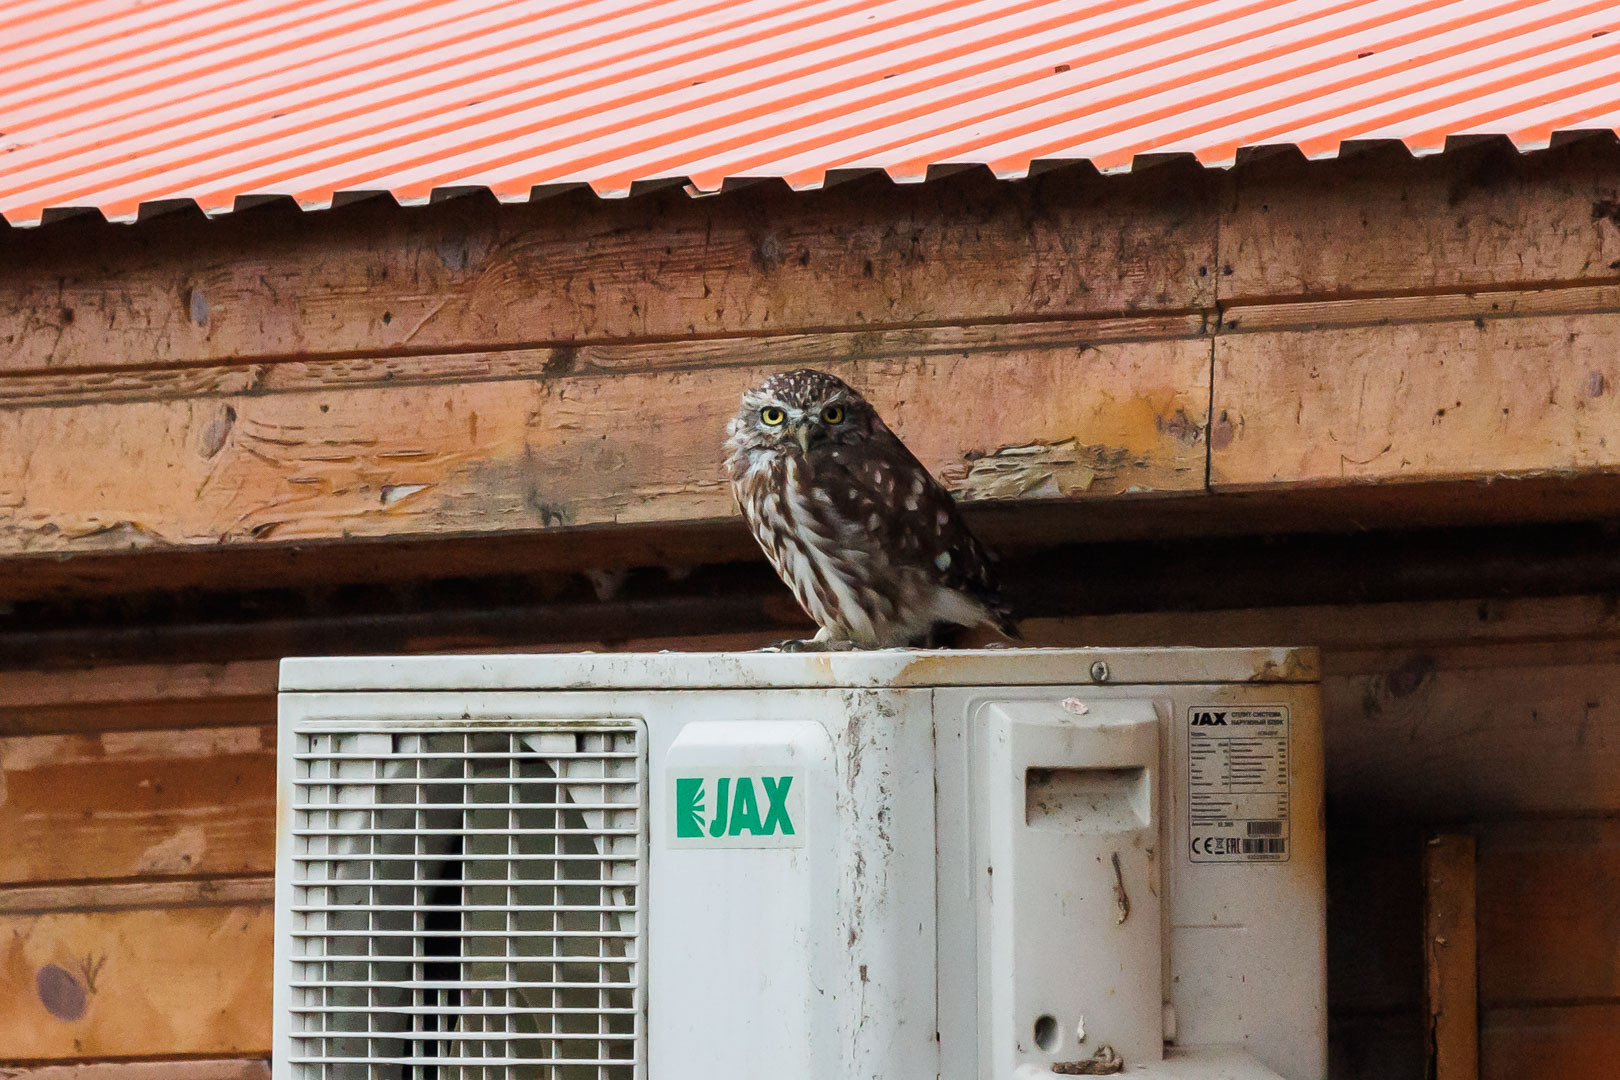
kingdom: Animalia
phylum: Chordata
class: Aves
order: Strigiformes
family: Strigidae
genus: Athene
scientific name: Athene noctua
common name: Little owl
